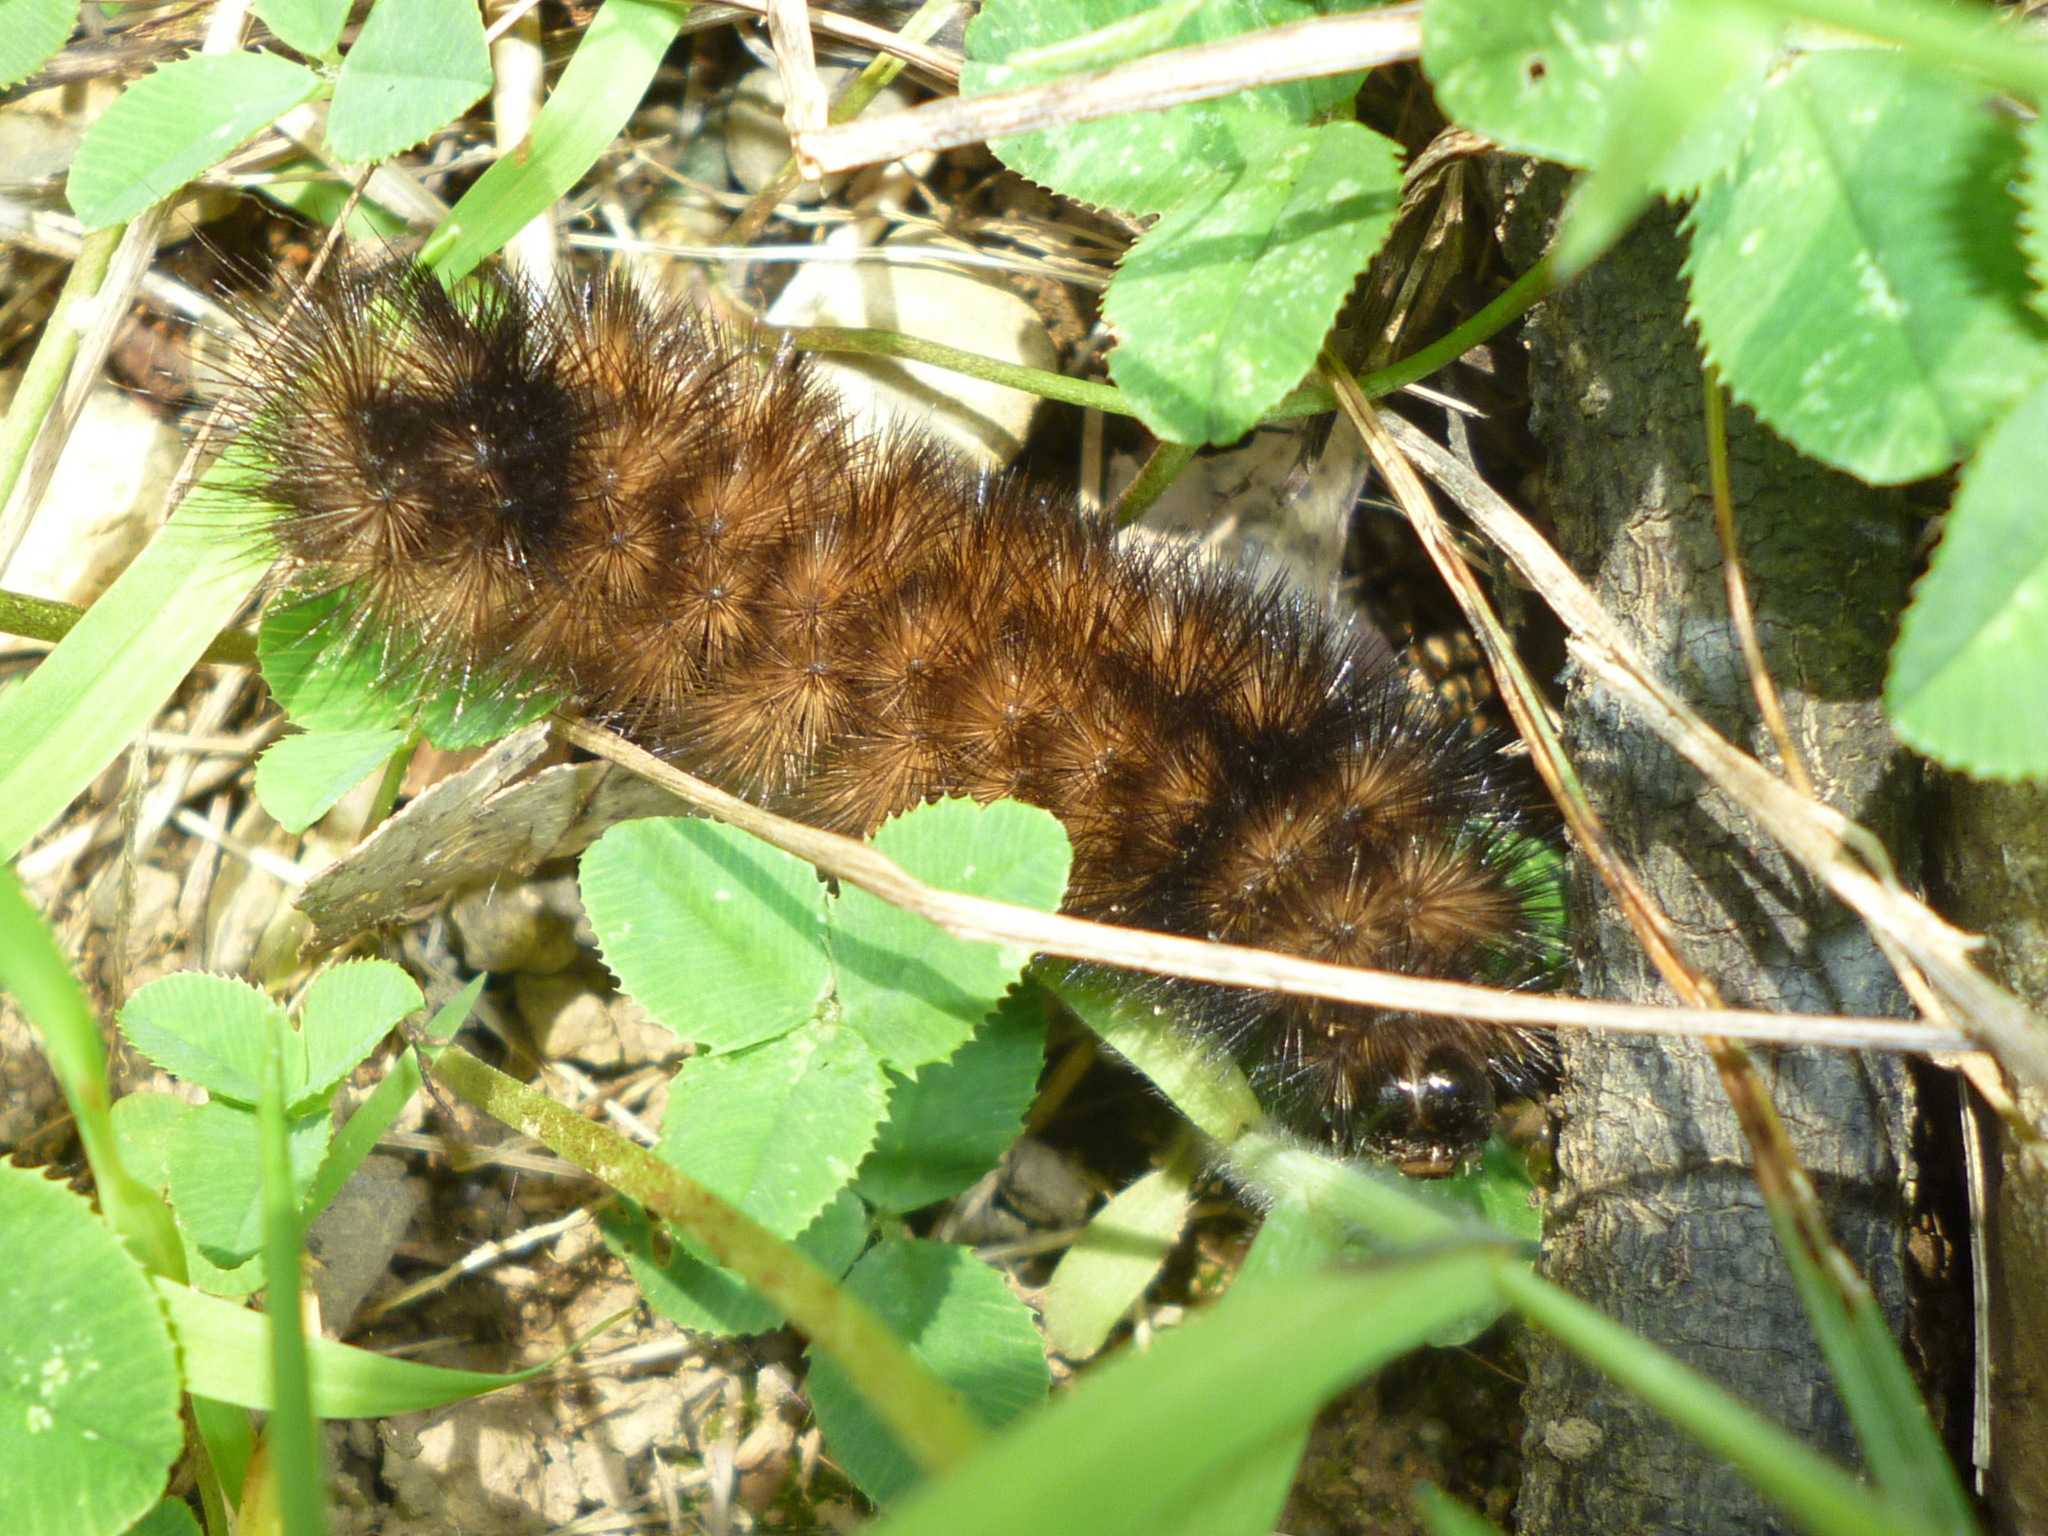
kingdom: Animalia
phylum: Arthropoda
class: Insecta
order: Lepidoptera
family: Erebidae
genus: Pyrrharctia
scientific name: Pyrrharctia isabella
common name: Isabella tiger moth
